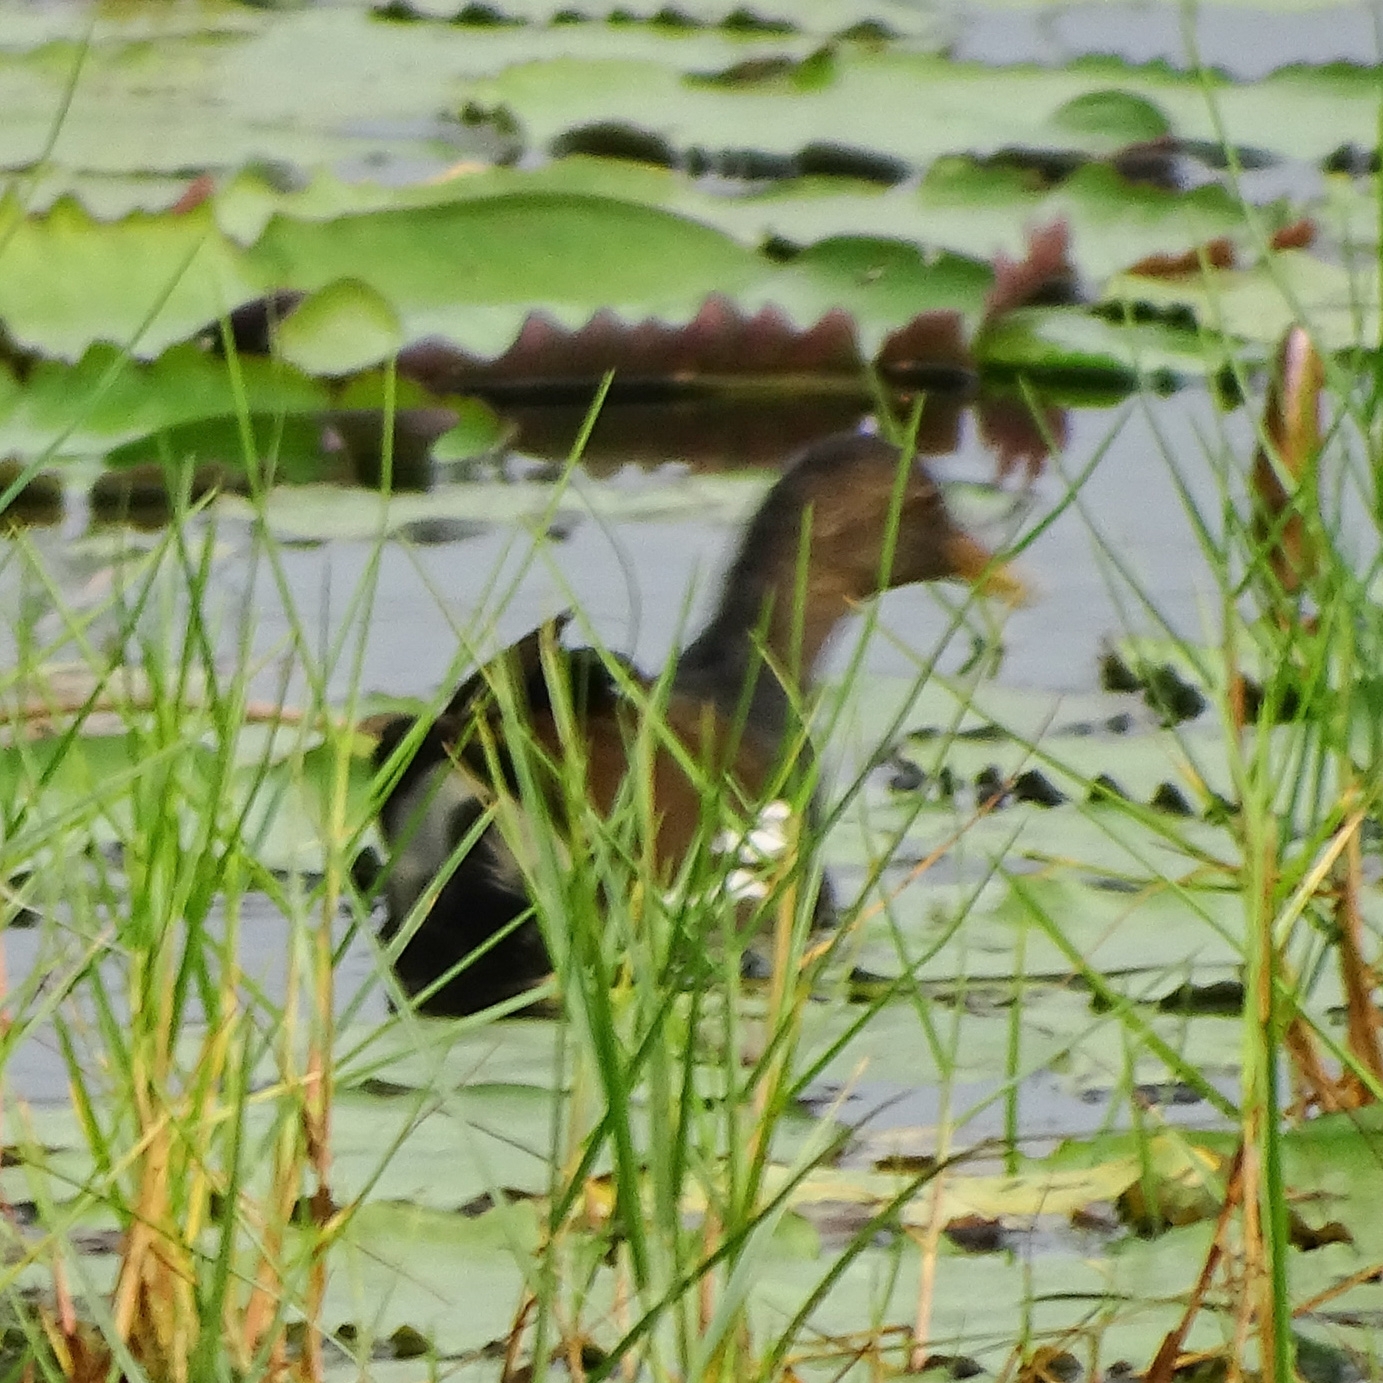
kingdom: Animalia
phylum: Chordata
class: Aves
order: Gruiformes
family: Rallidae
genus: Gallinula
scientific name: Gallinula chloropus
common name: Common moorhen
